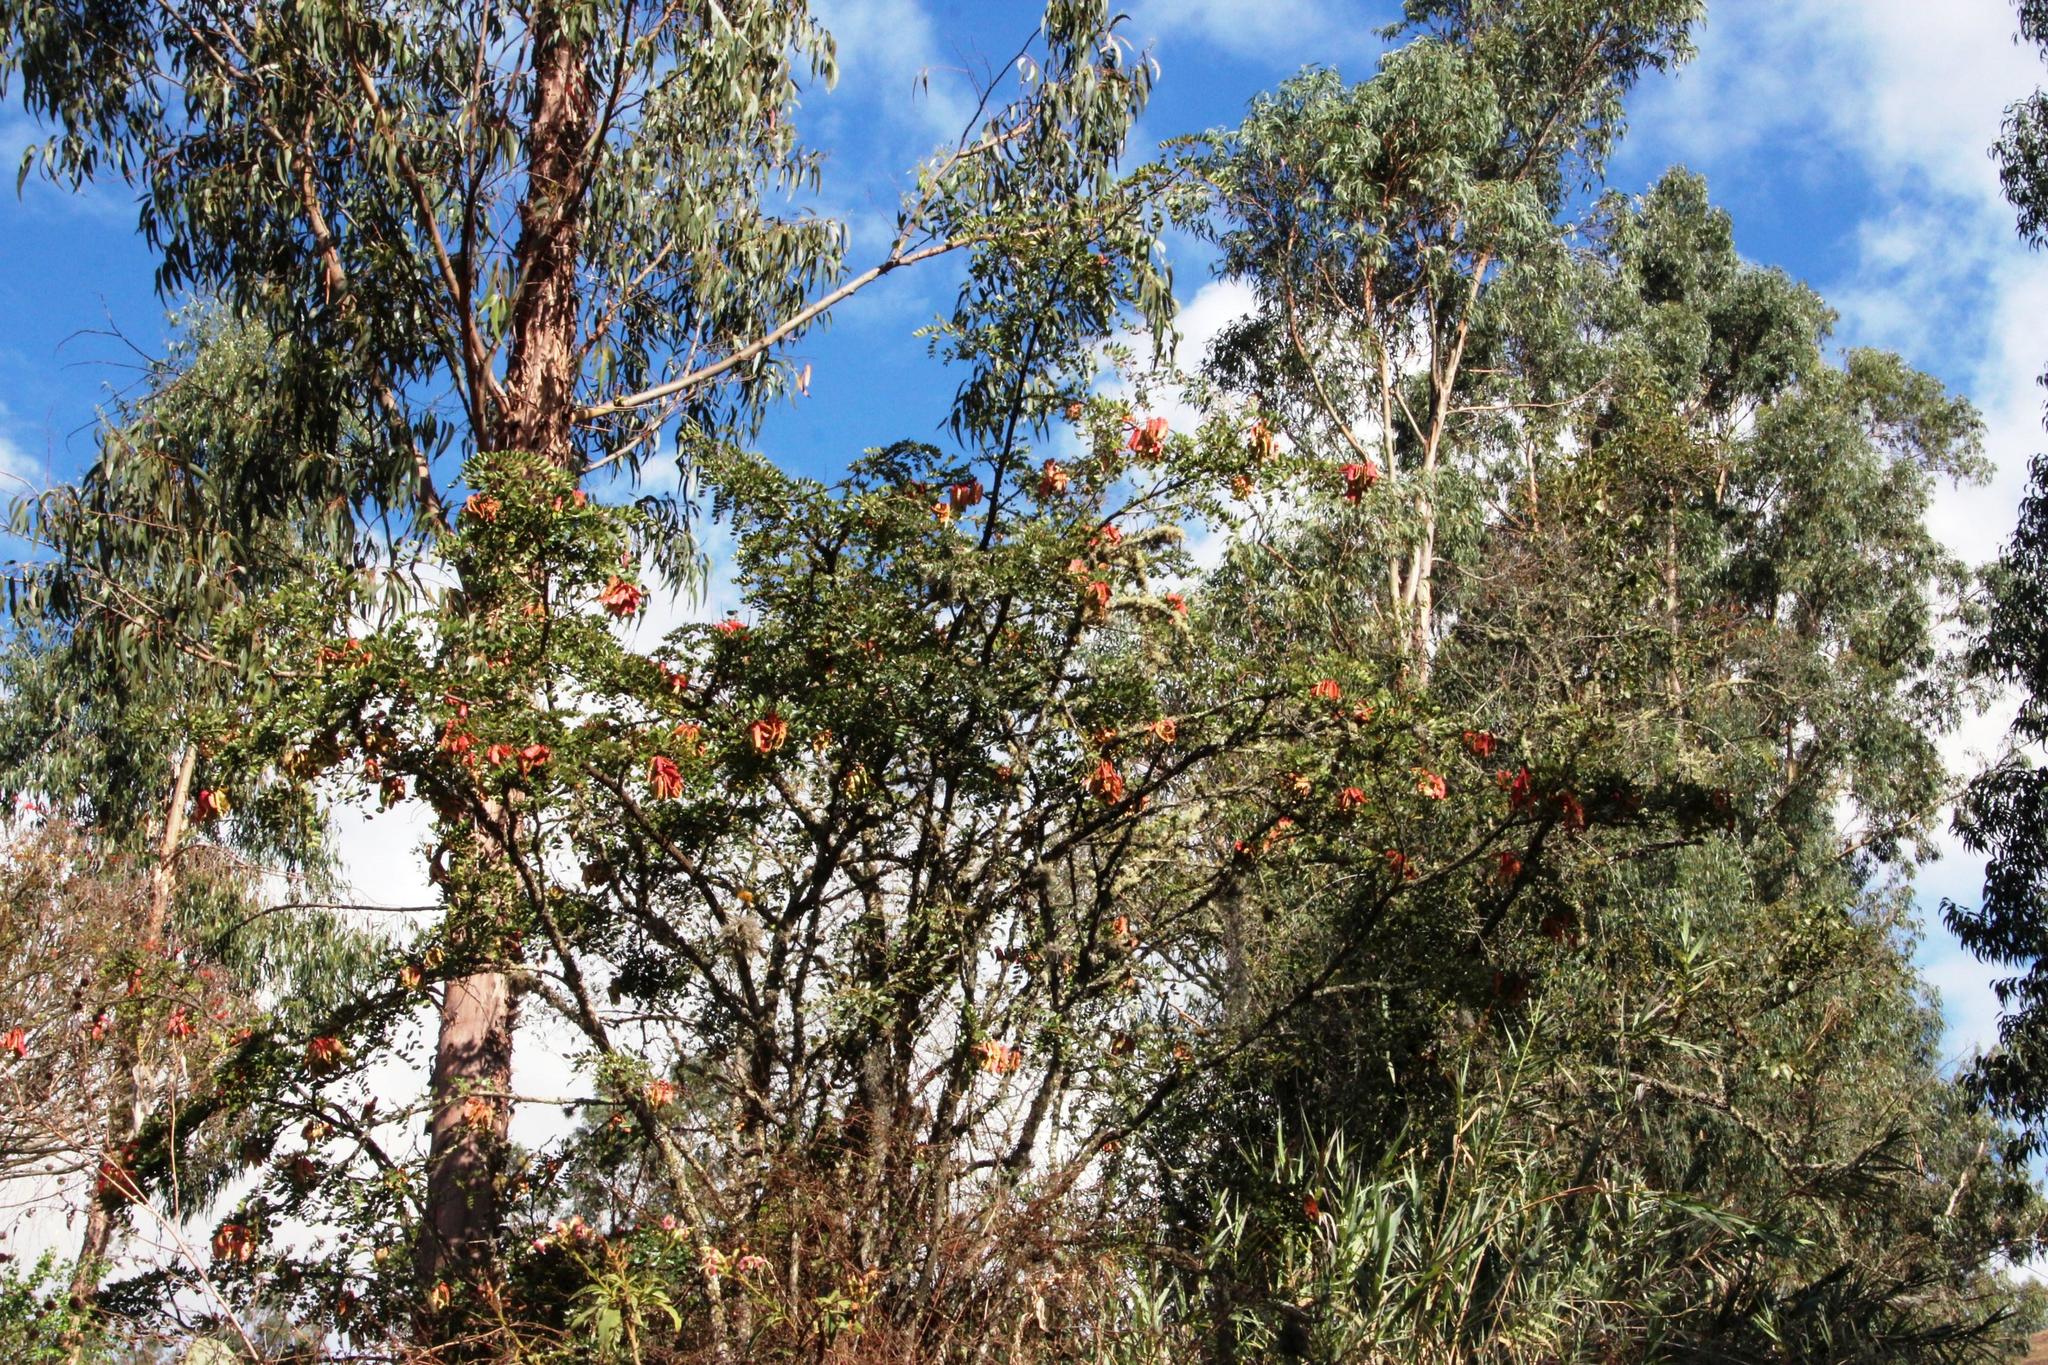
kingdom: Plantae
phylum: Tracheophyta
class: Magnoliopsida
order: Fabales
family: Fabaceae
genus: Tara
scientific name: Tara spinosa
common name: Spiny holdback
